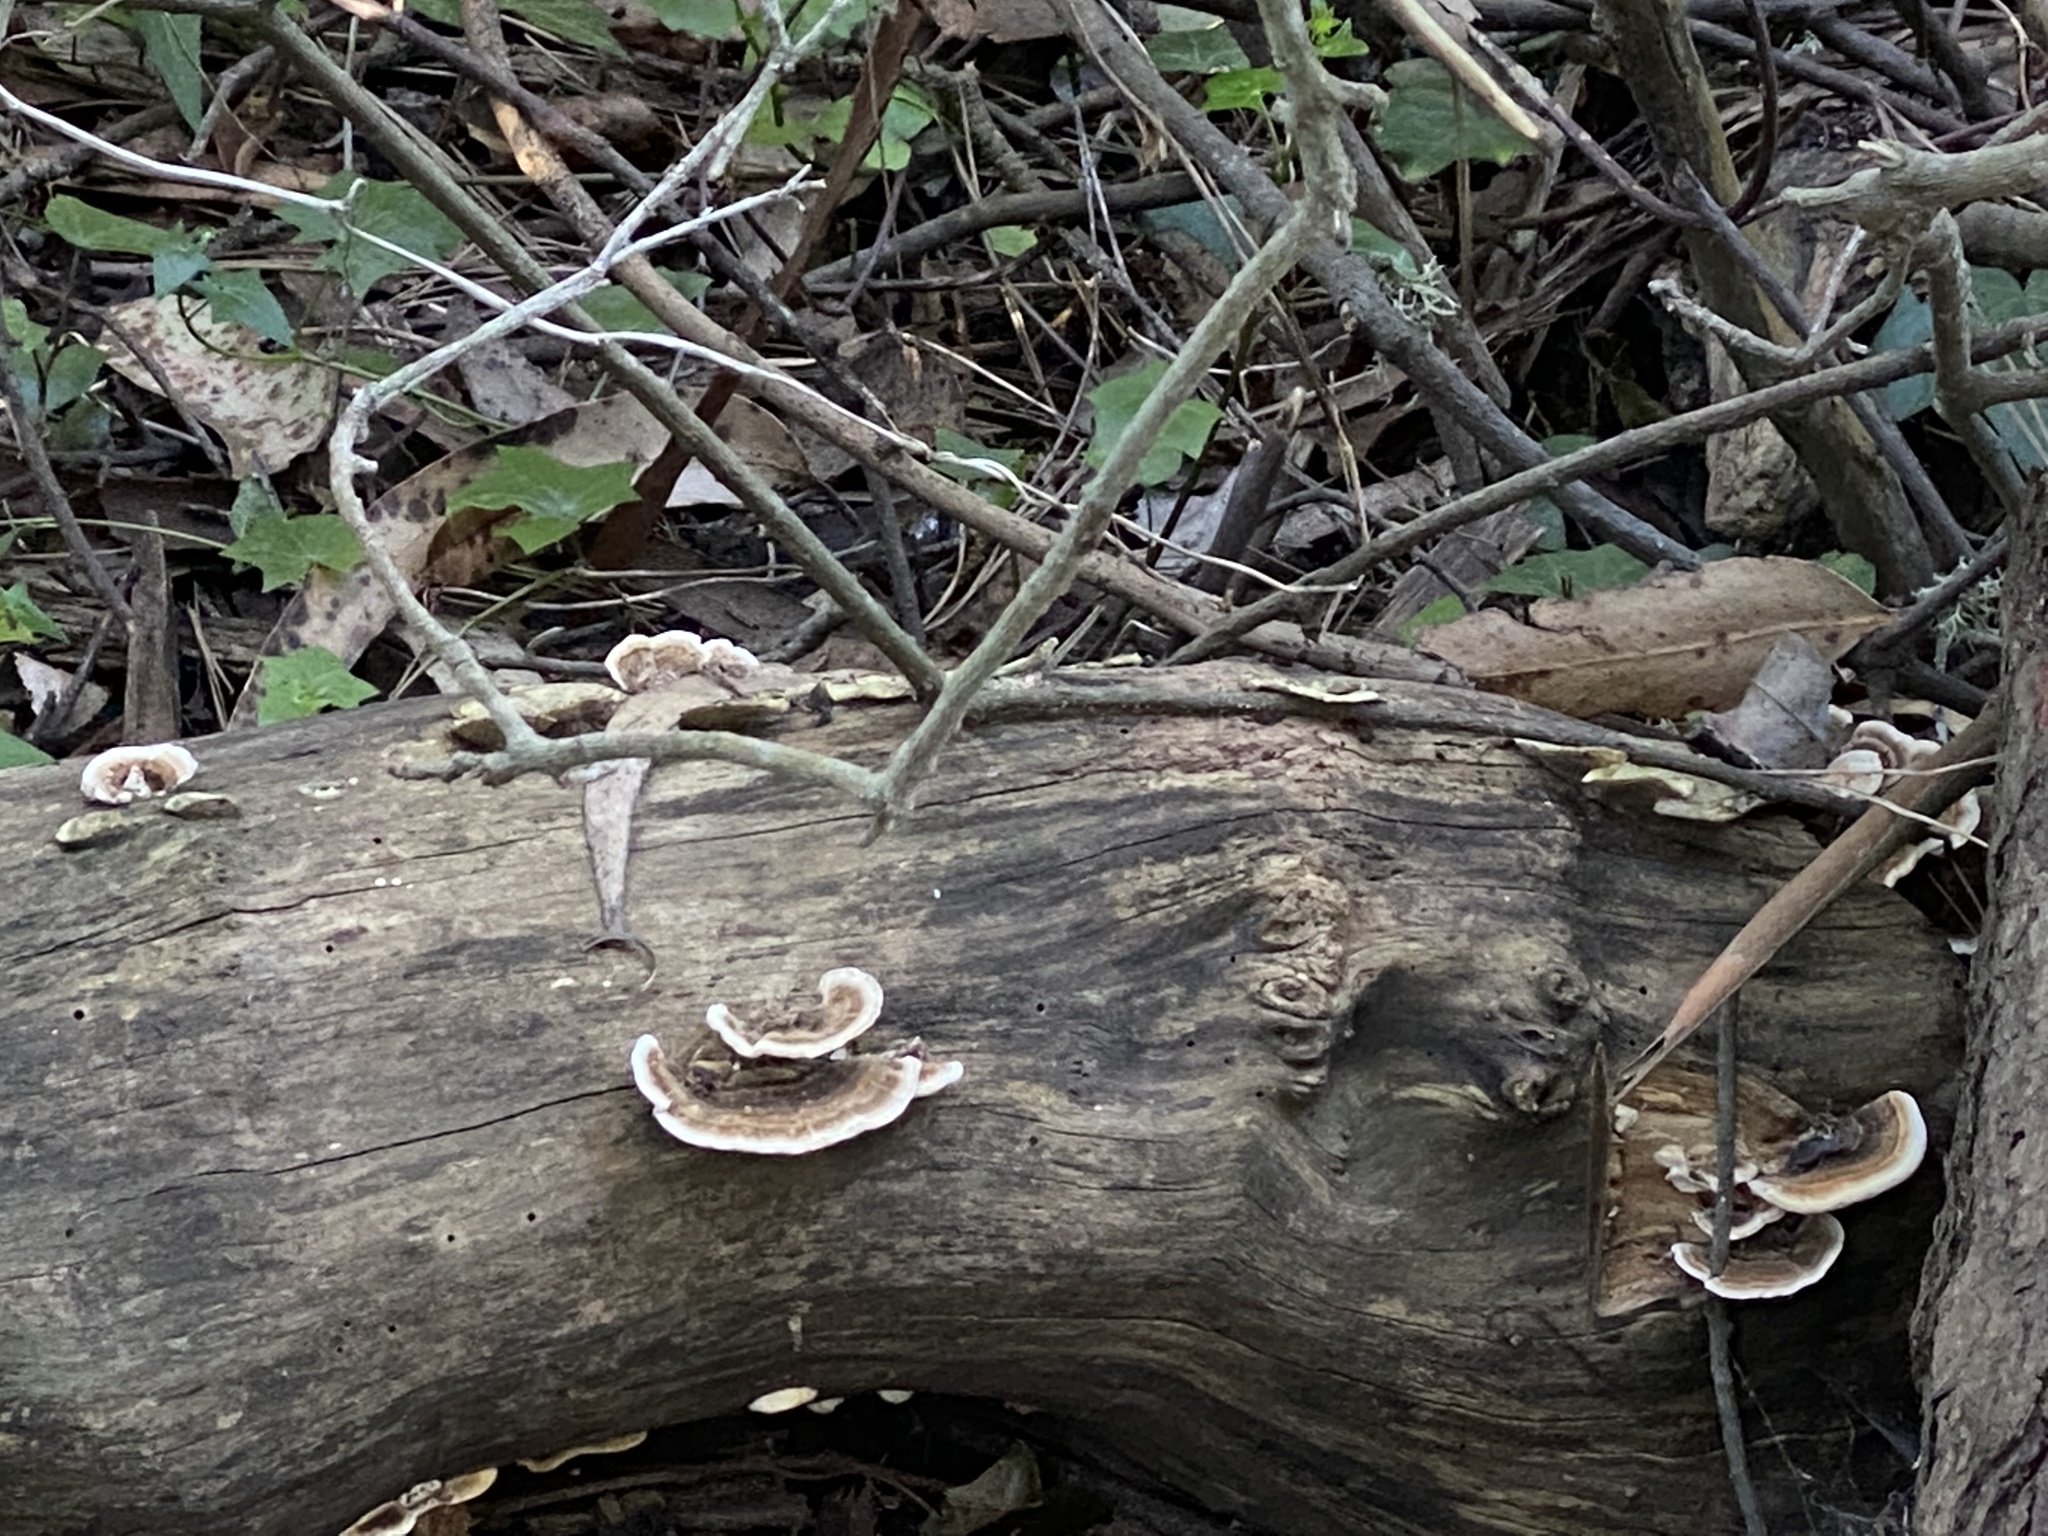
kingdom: Fungi
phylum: Basidiomycota
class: Agaricomycetes
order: Polyporales
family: Polyporaceae
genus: Trametes
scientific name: Trametes versicolor
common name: Turkeytail
